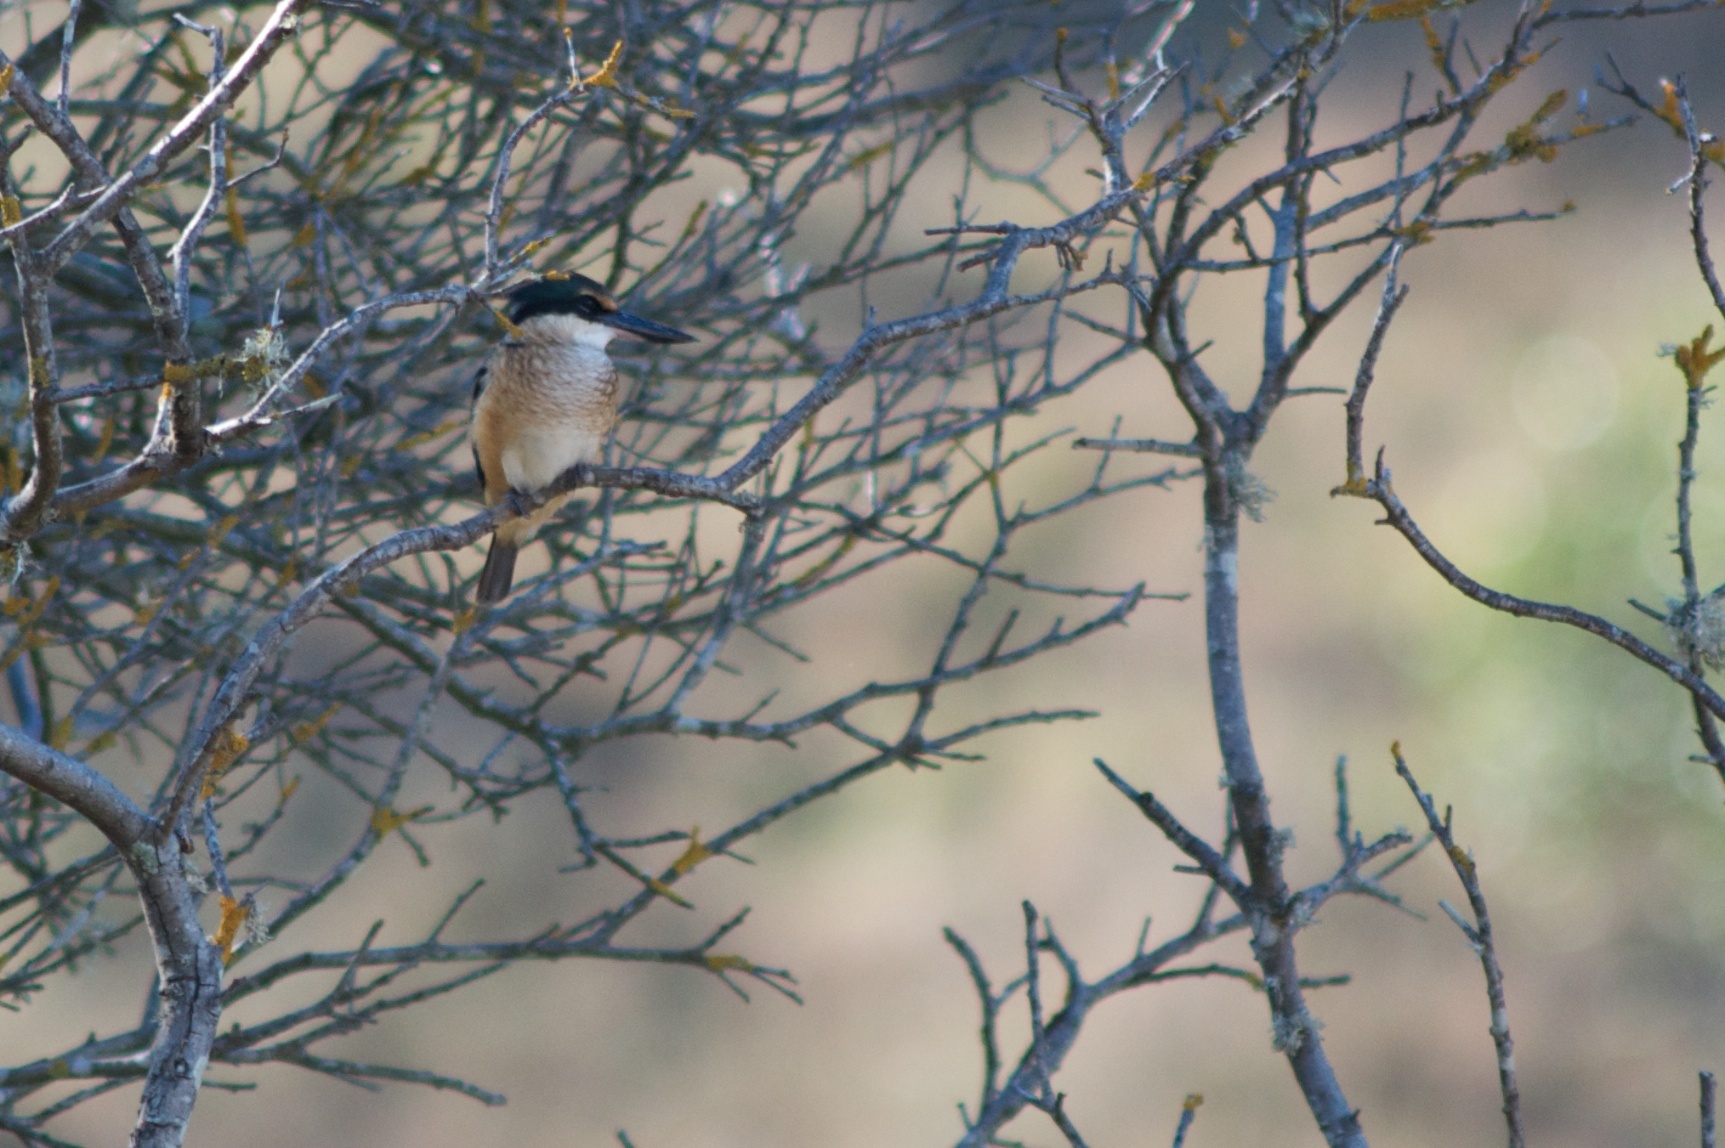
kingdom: Animalia
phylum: Chordata
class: Aves
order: Coraciiformes
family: Alcedinidae
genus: Todiramphus
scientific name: Todiramphus sanctus
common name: Sacred kingfisher
